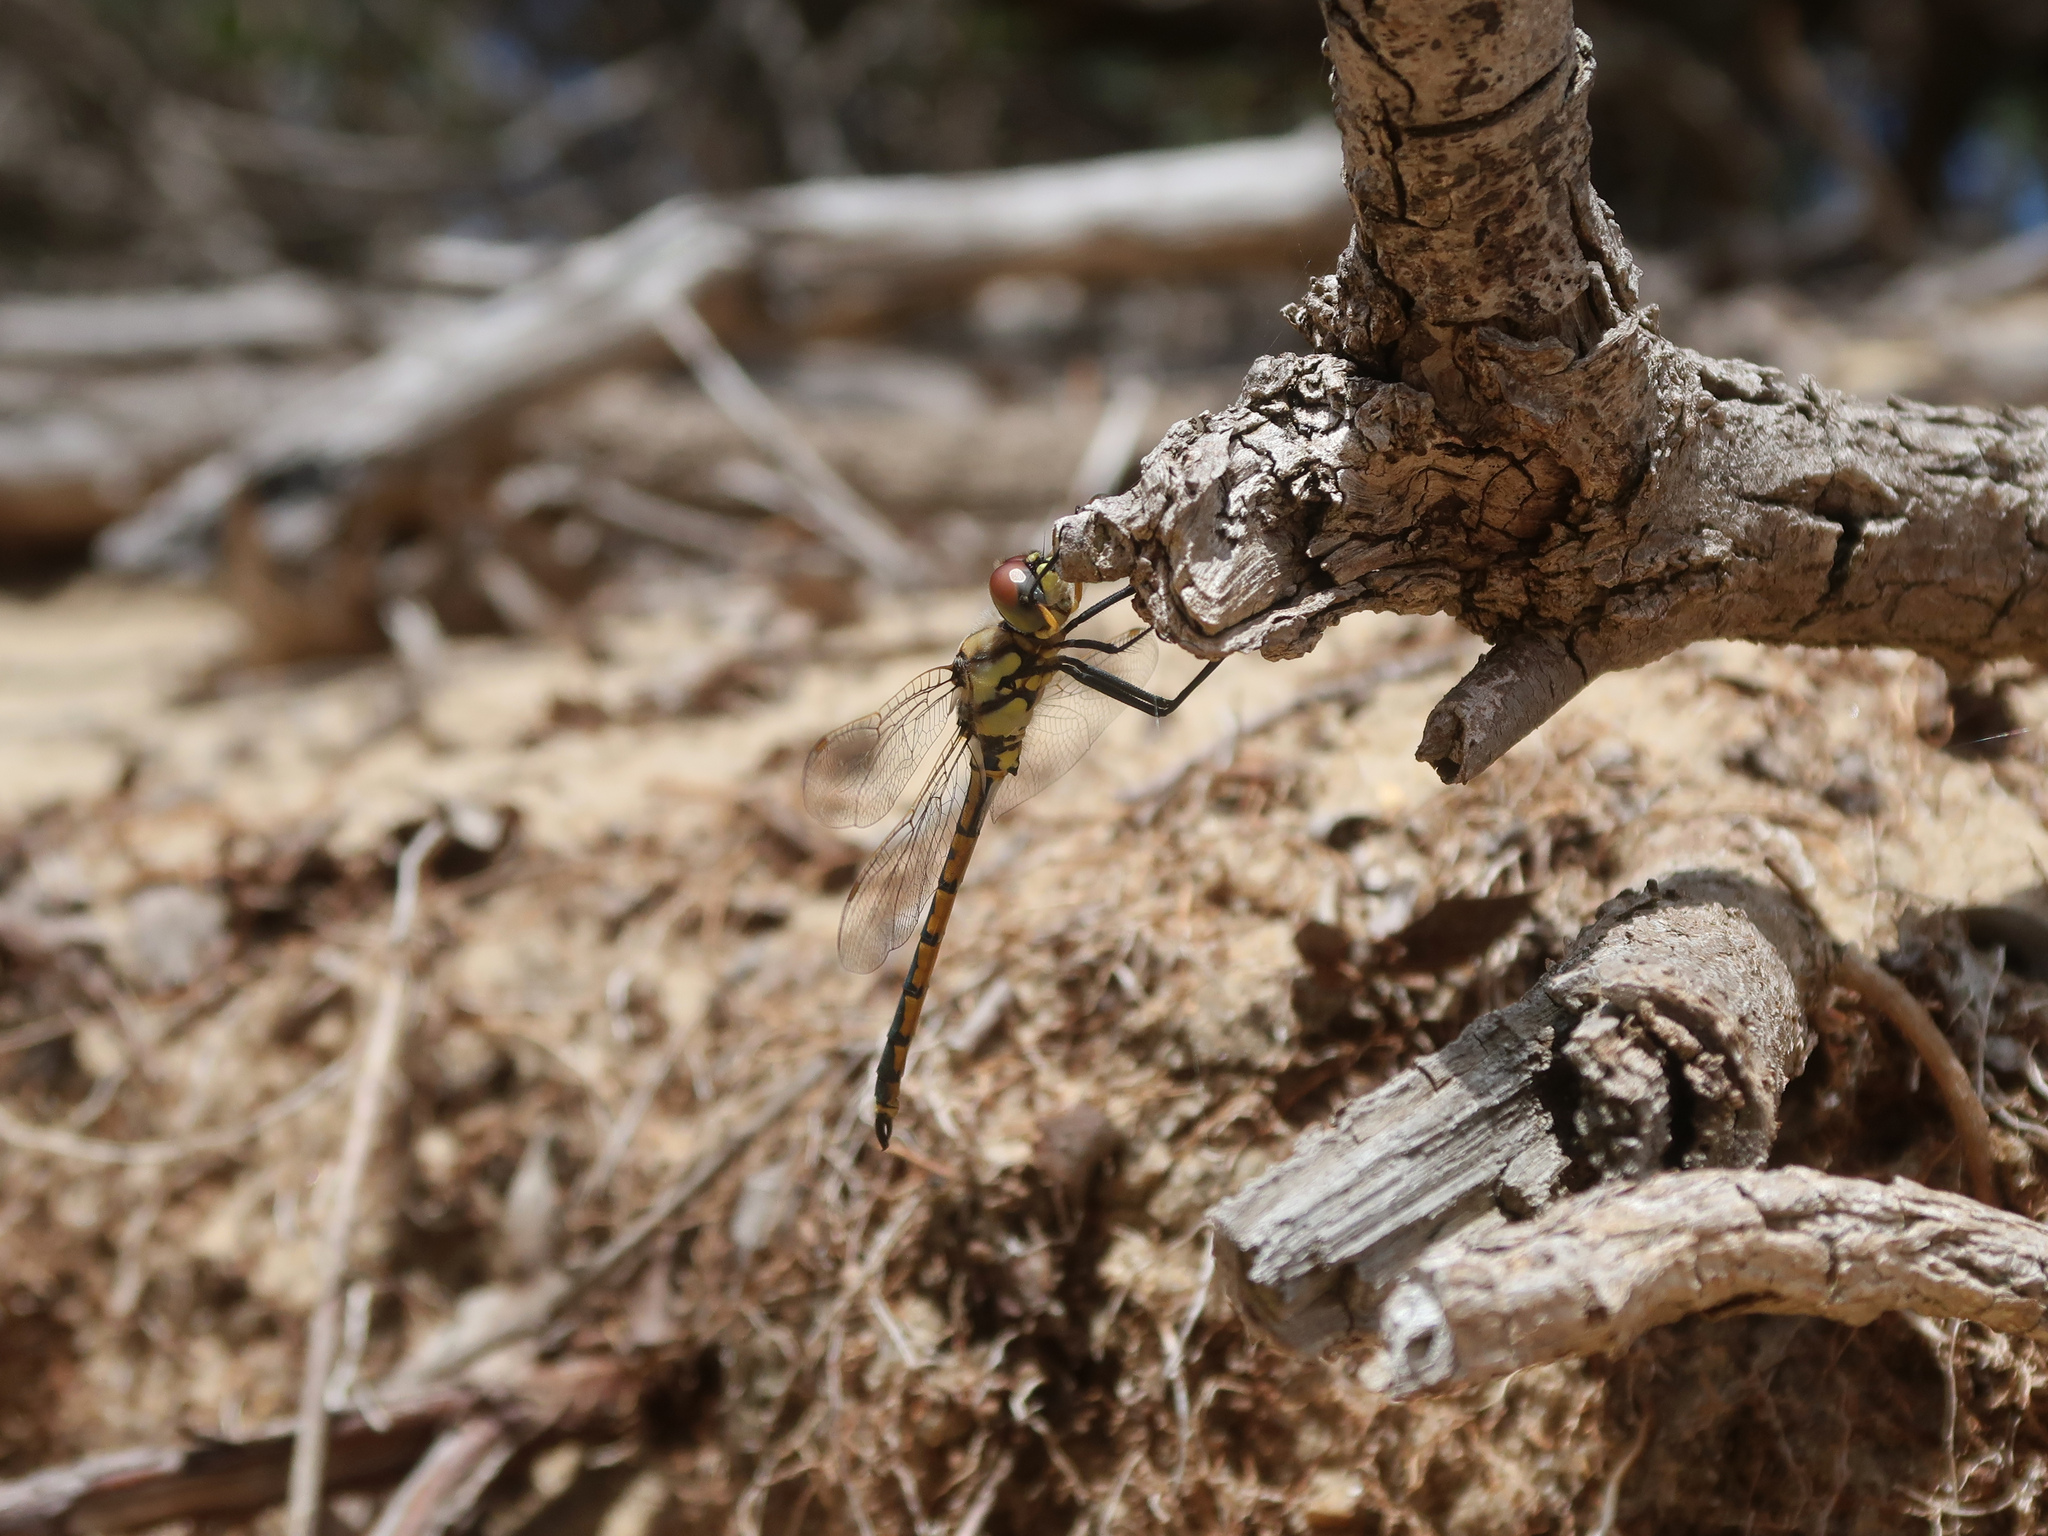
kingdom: Animalia
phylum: Arthropoda
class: Insecta
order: Odonata
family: Corduliidae
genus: Hemicordulia
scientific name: Hemicordulia tau
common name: Tau emerald
